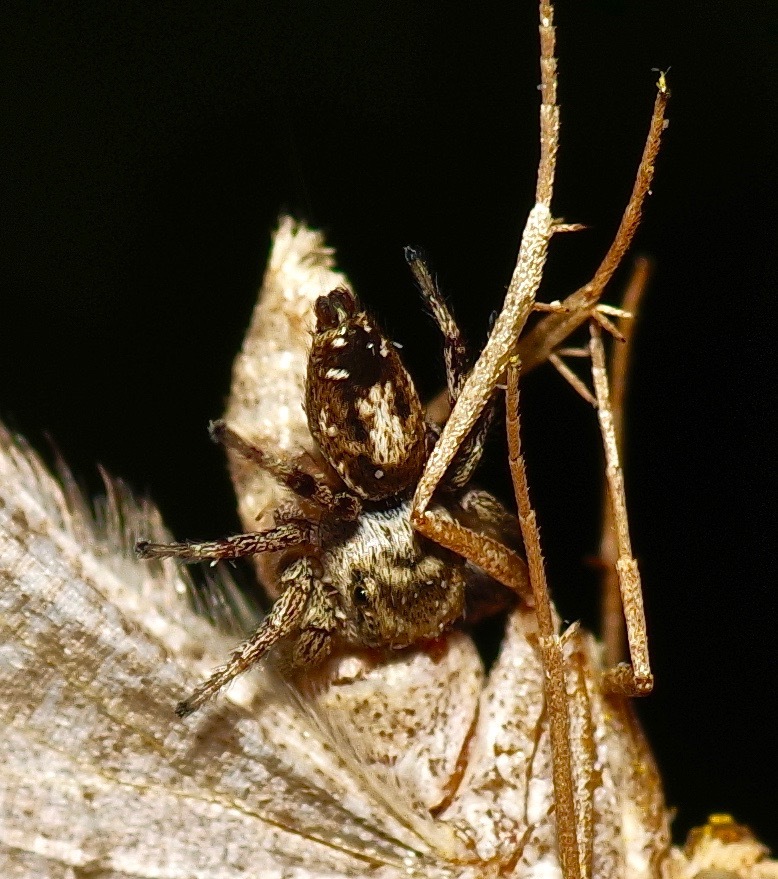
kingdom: Animalia
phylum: Arthropoda
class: Arachnida
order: Araneae
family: Salticidae
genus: Pelegrina
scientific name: Pelegrina sabinema
